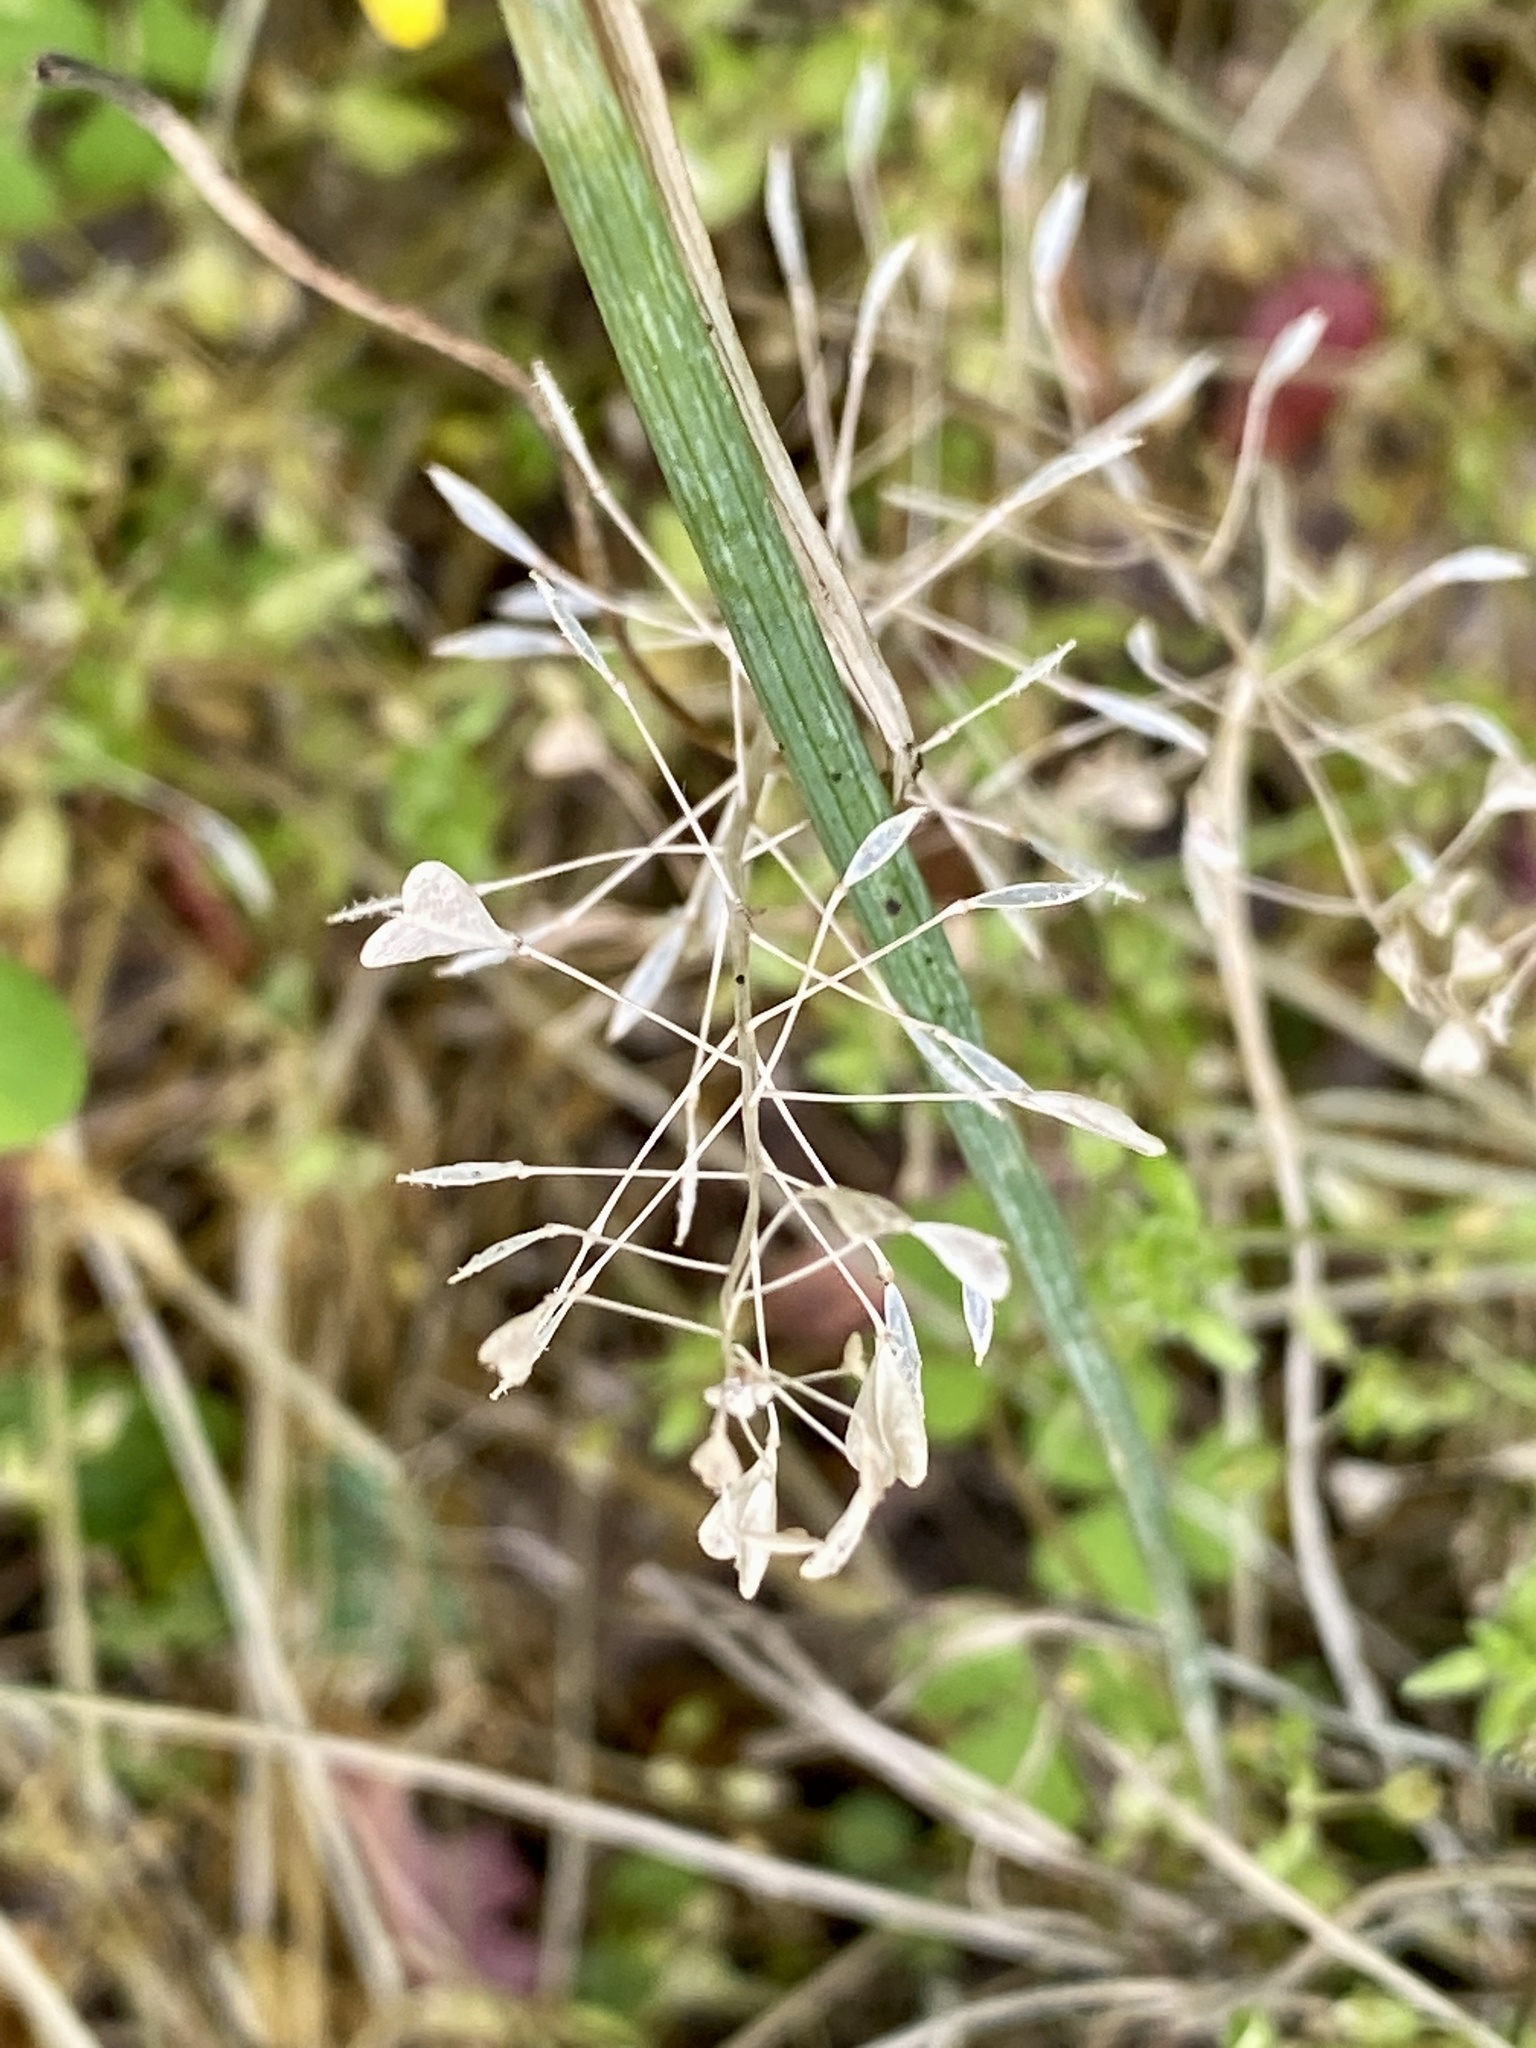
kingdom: Plantae
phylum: Tracheophyta
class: Magnoliopsida
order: Brassicales
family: Brassicaceae
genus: Capsella
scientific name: Capsella bursa-pastoris
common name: Shepherd's purse
